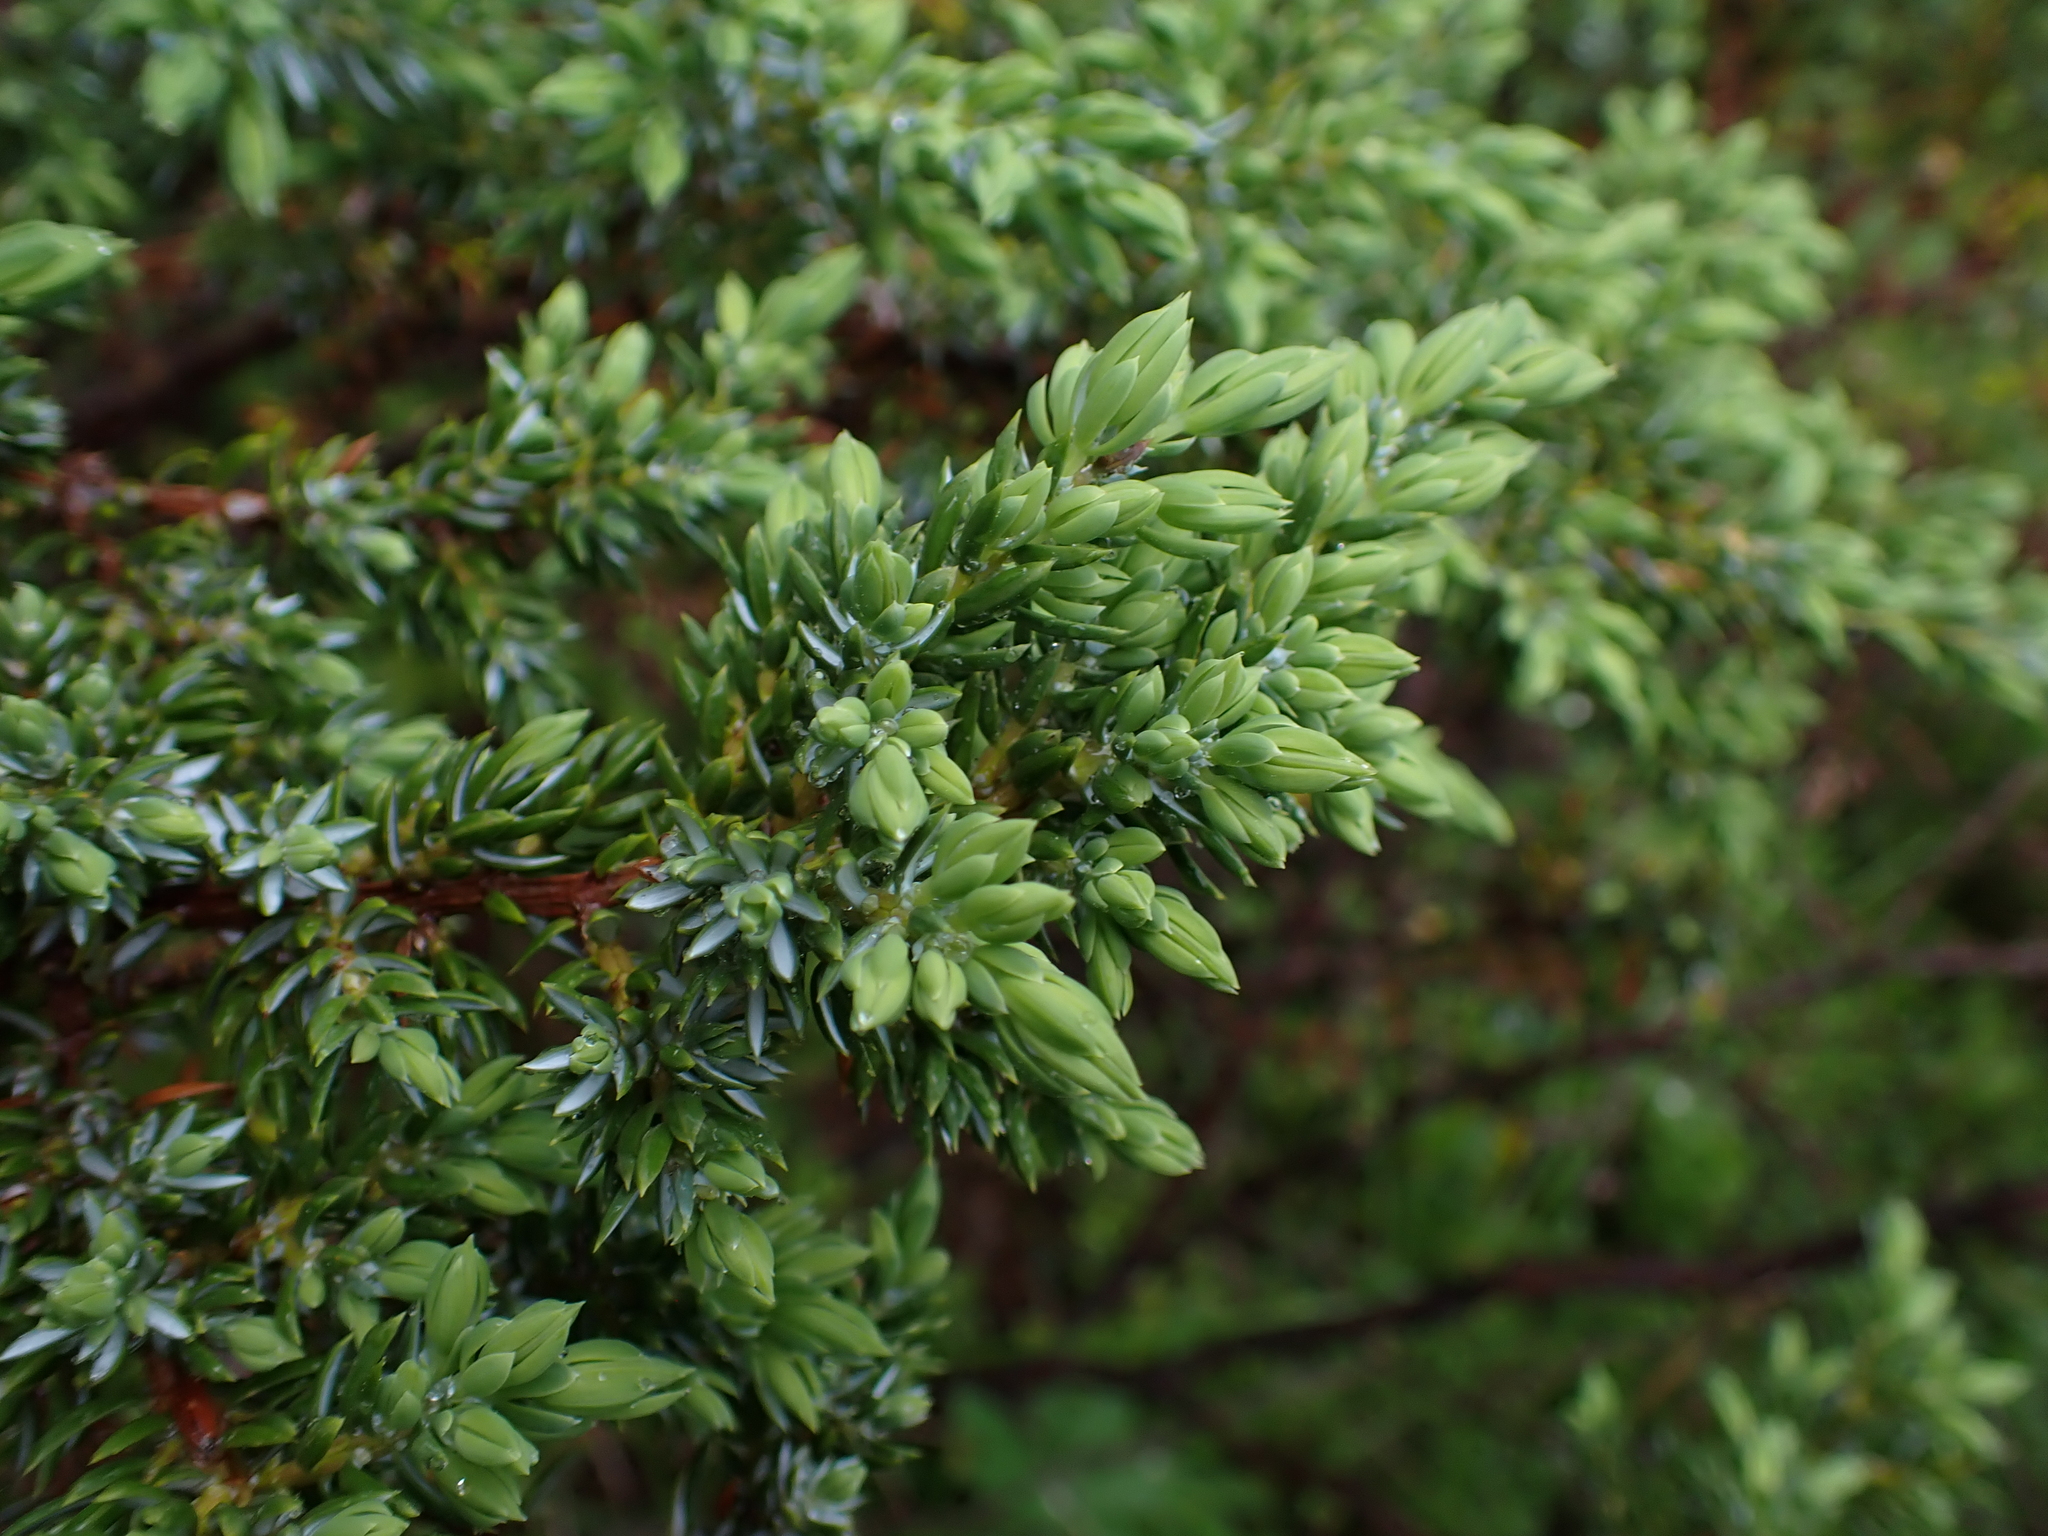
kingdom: Plantae
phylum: Tracheophyta
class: Pinopsida
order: Pinales
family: Cupressaceae
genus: Juniperus
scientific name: Juniperus communis
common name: Common juniper
